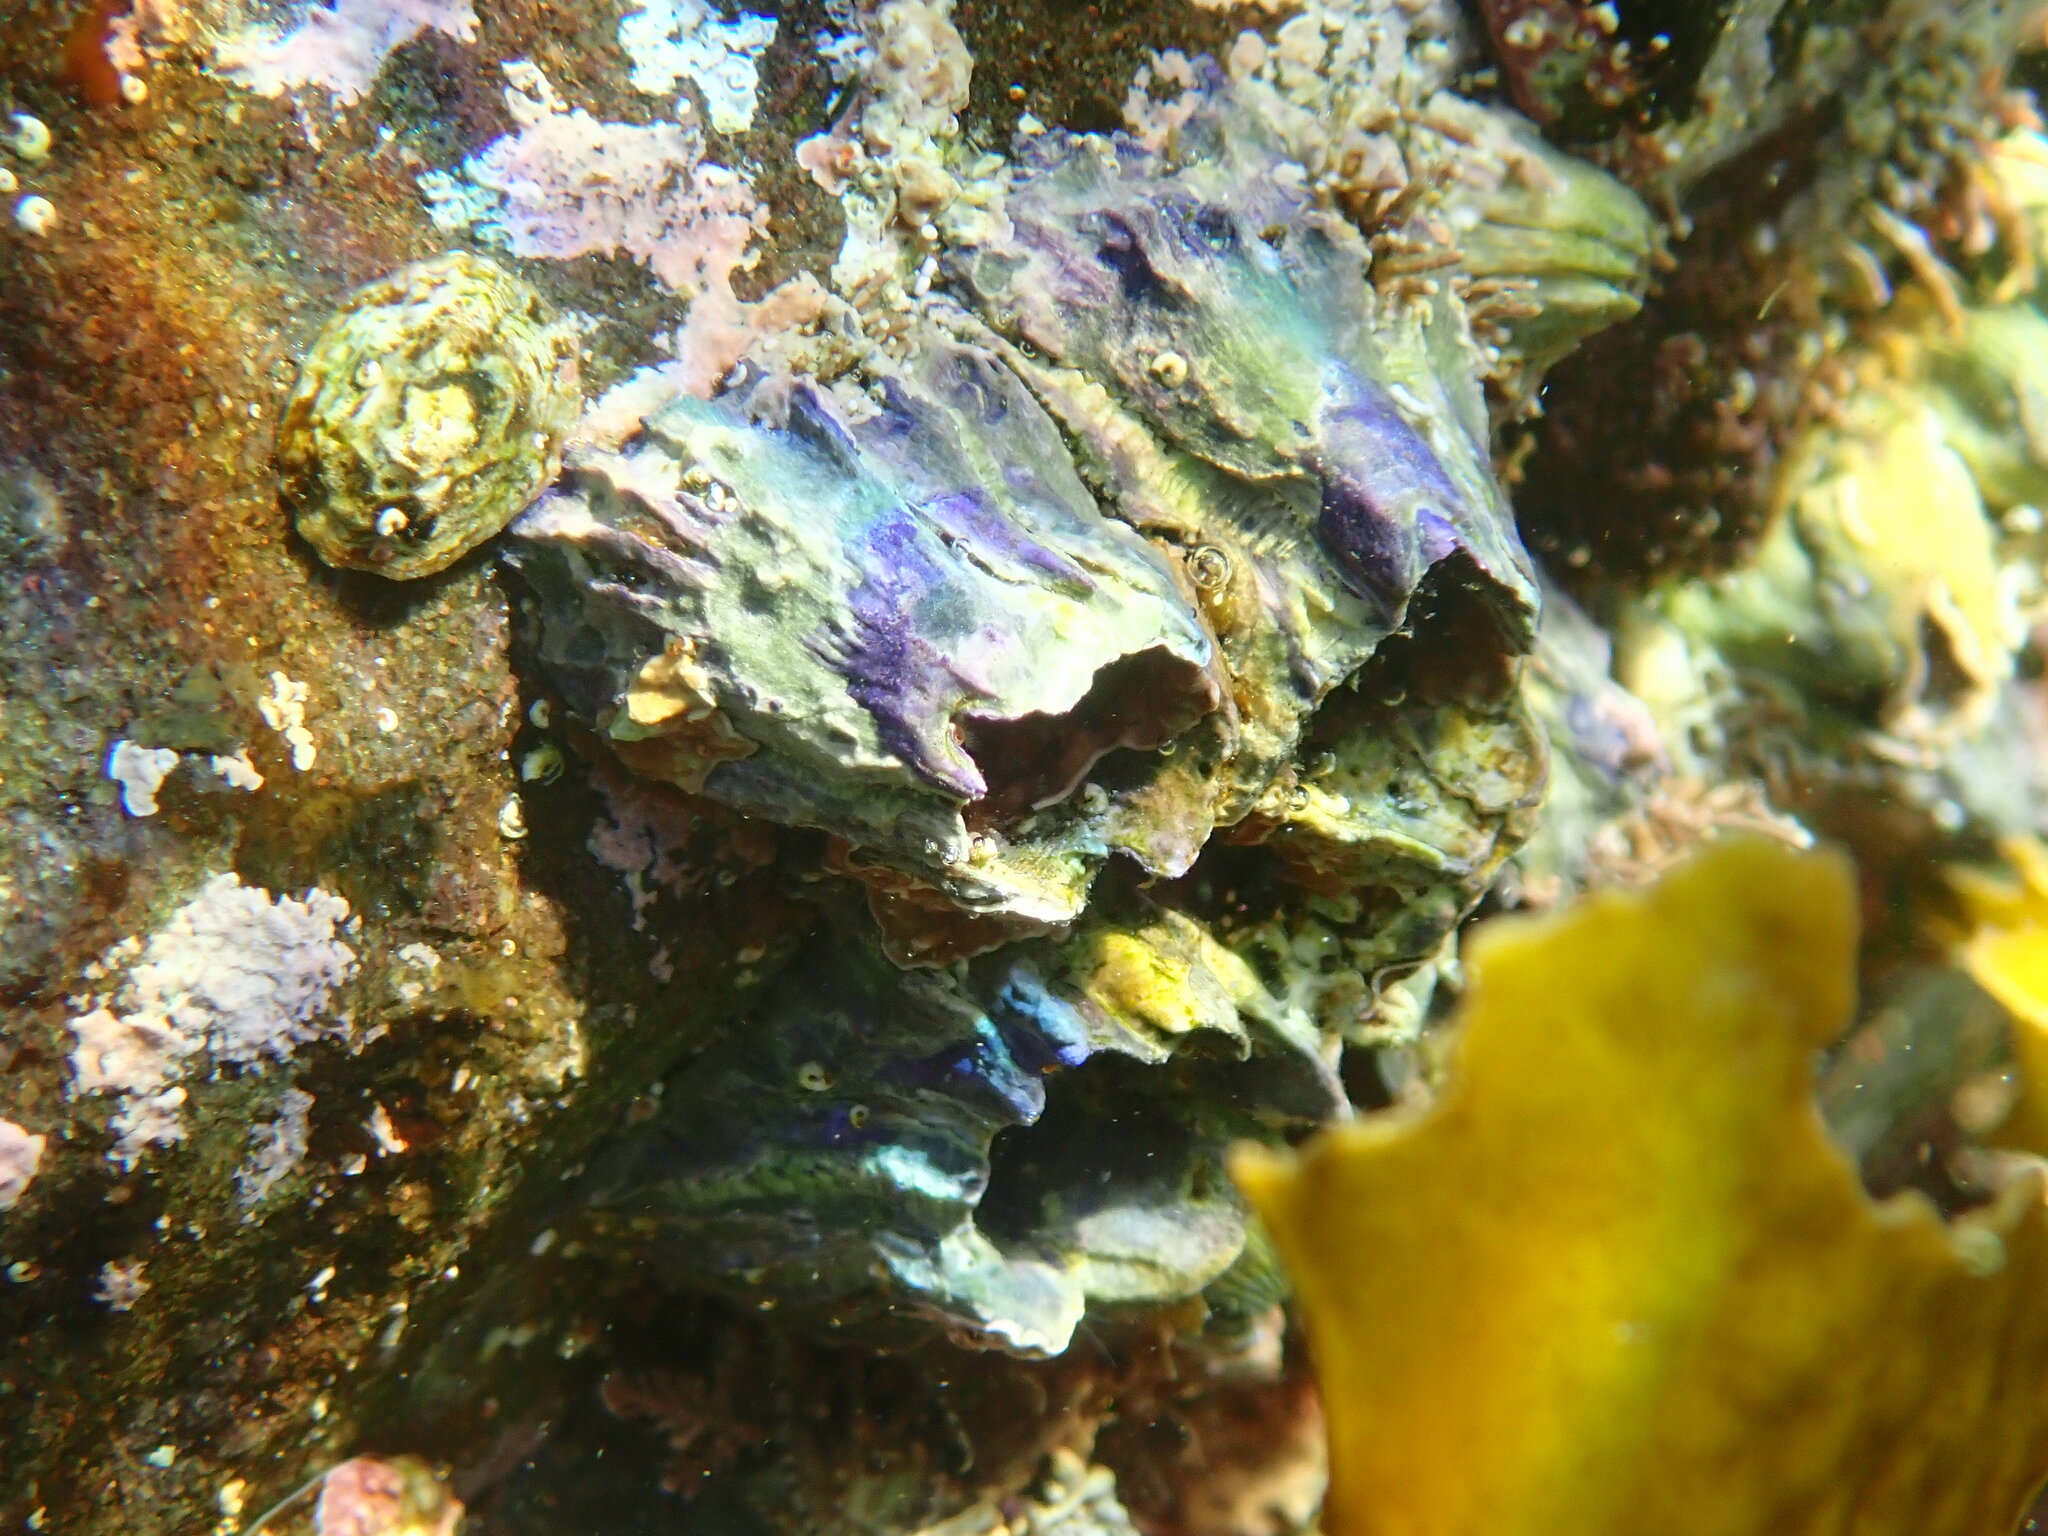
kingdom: Animalia
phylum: Arthropoda
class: Maxillopoda
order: Sessilia
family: Austrobalanidae
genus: Austrobalanus
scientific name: Austrobalanus imperator
